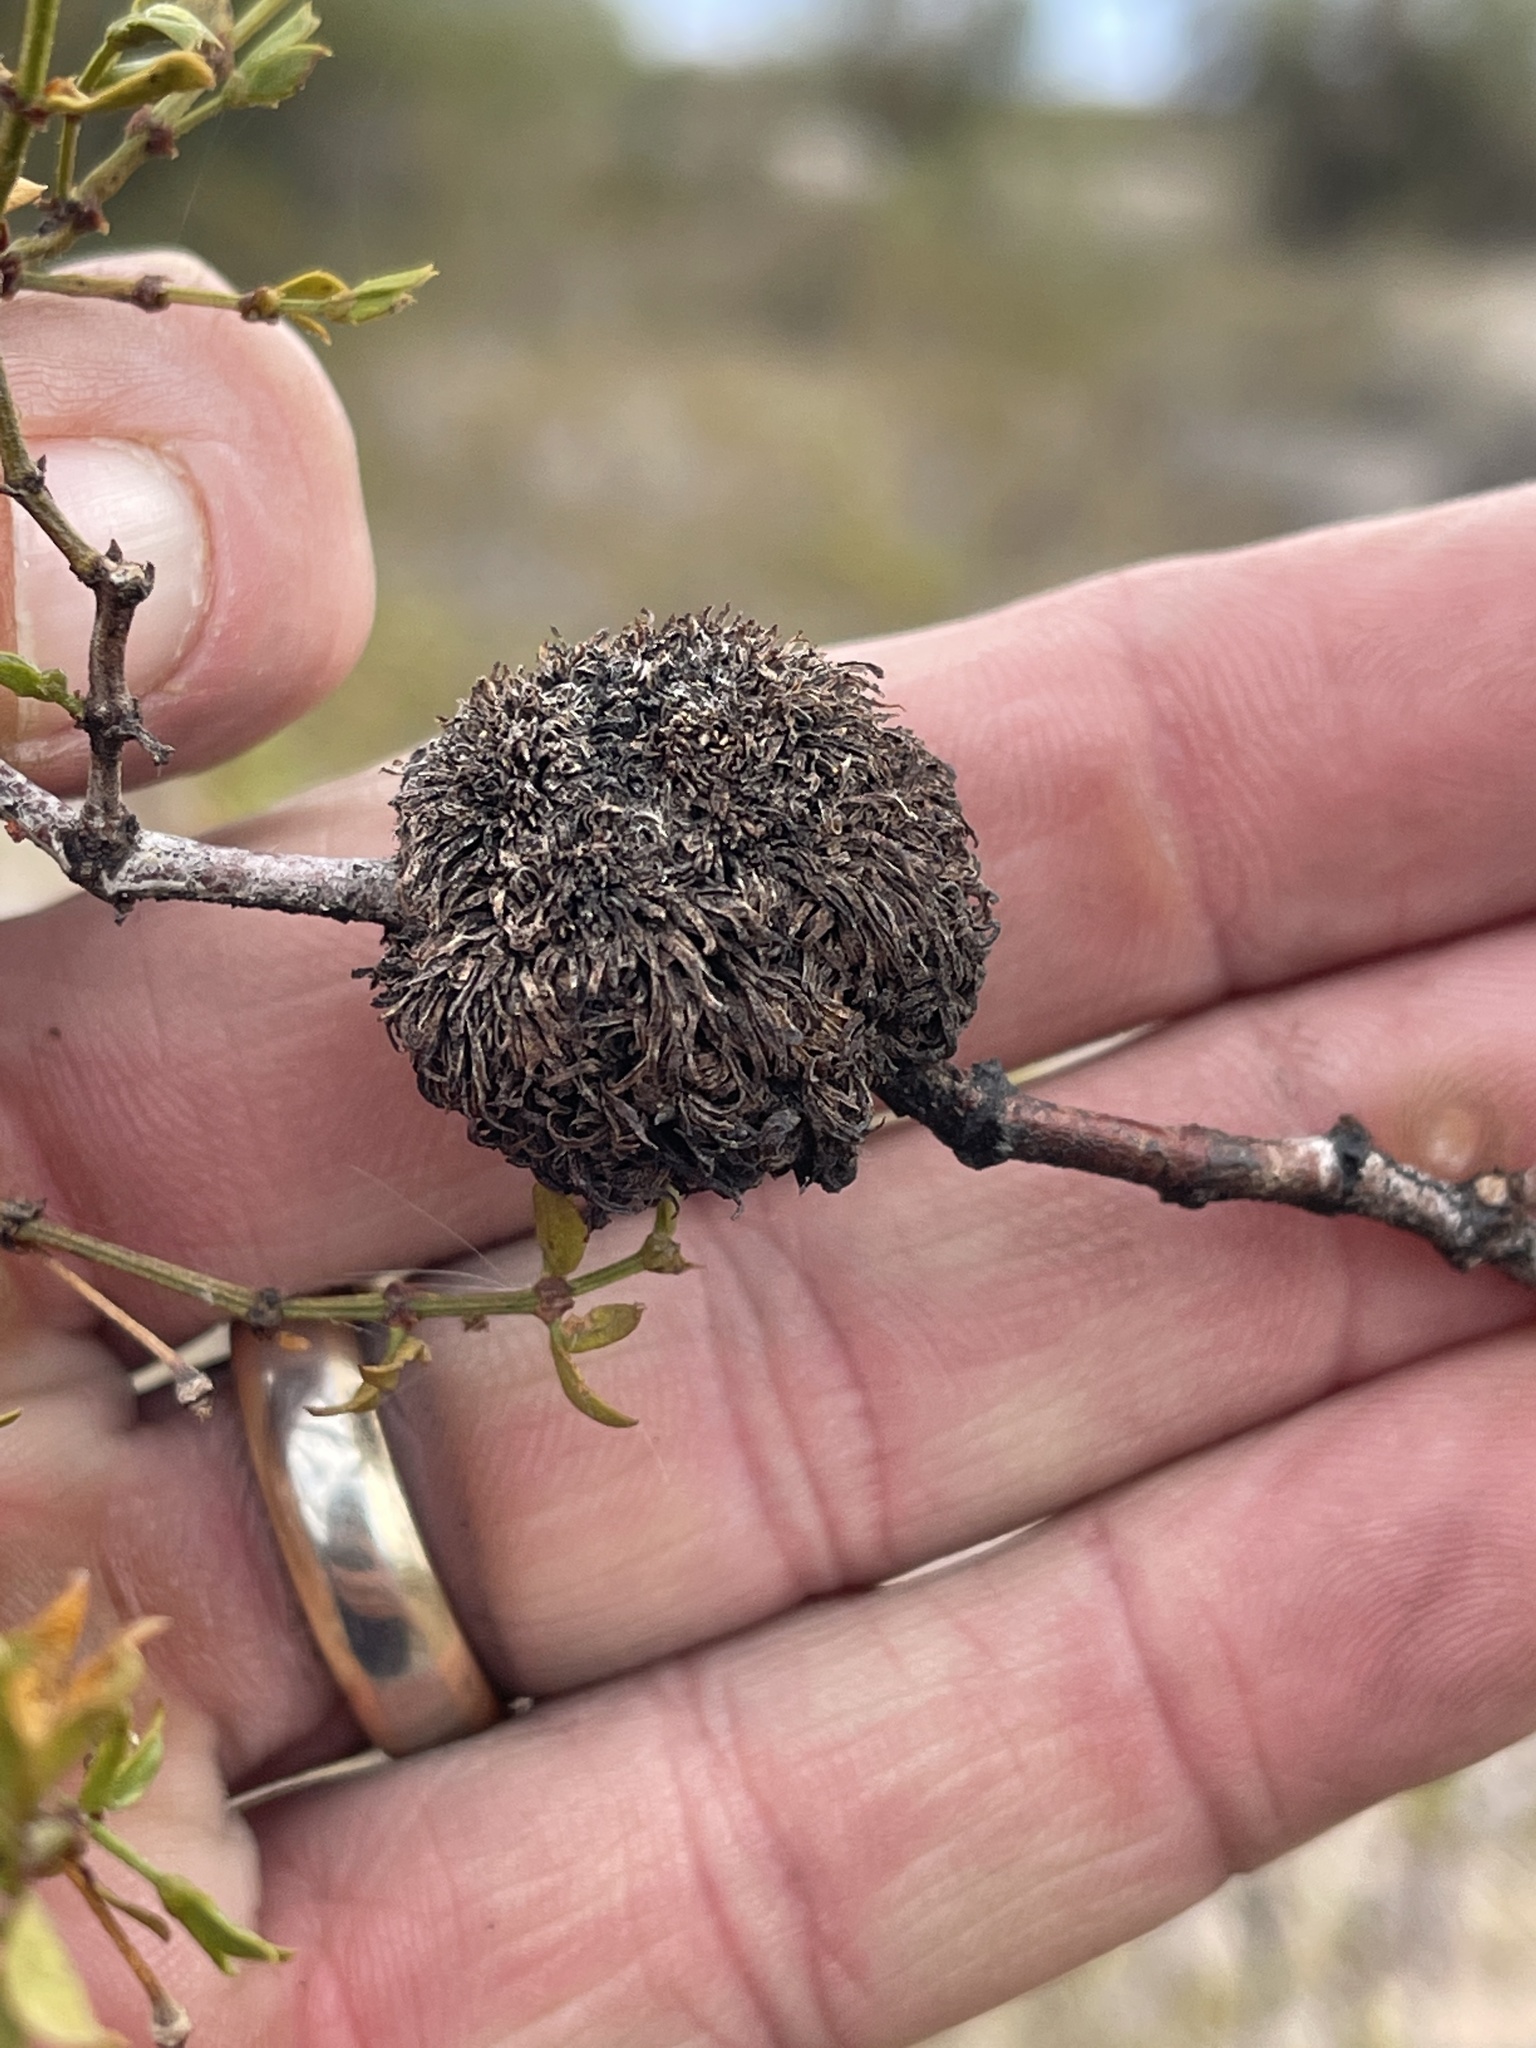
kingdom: Animalia
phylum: Arthropoda
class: Insecta
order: Diptera
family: Cecidomyiidae
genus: Asphondylia
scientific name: Asphondylia auripila
